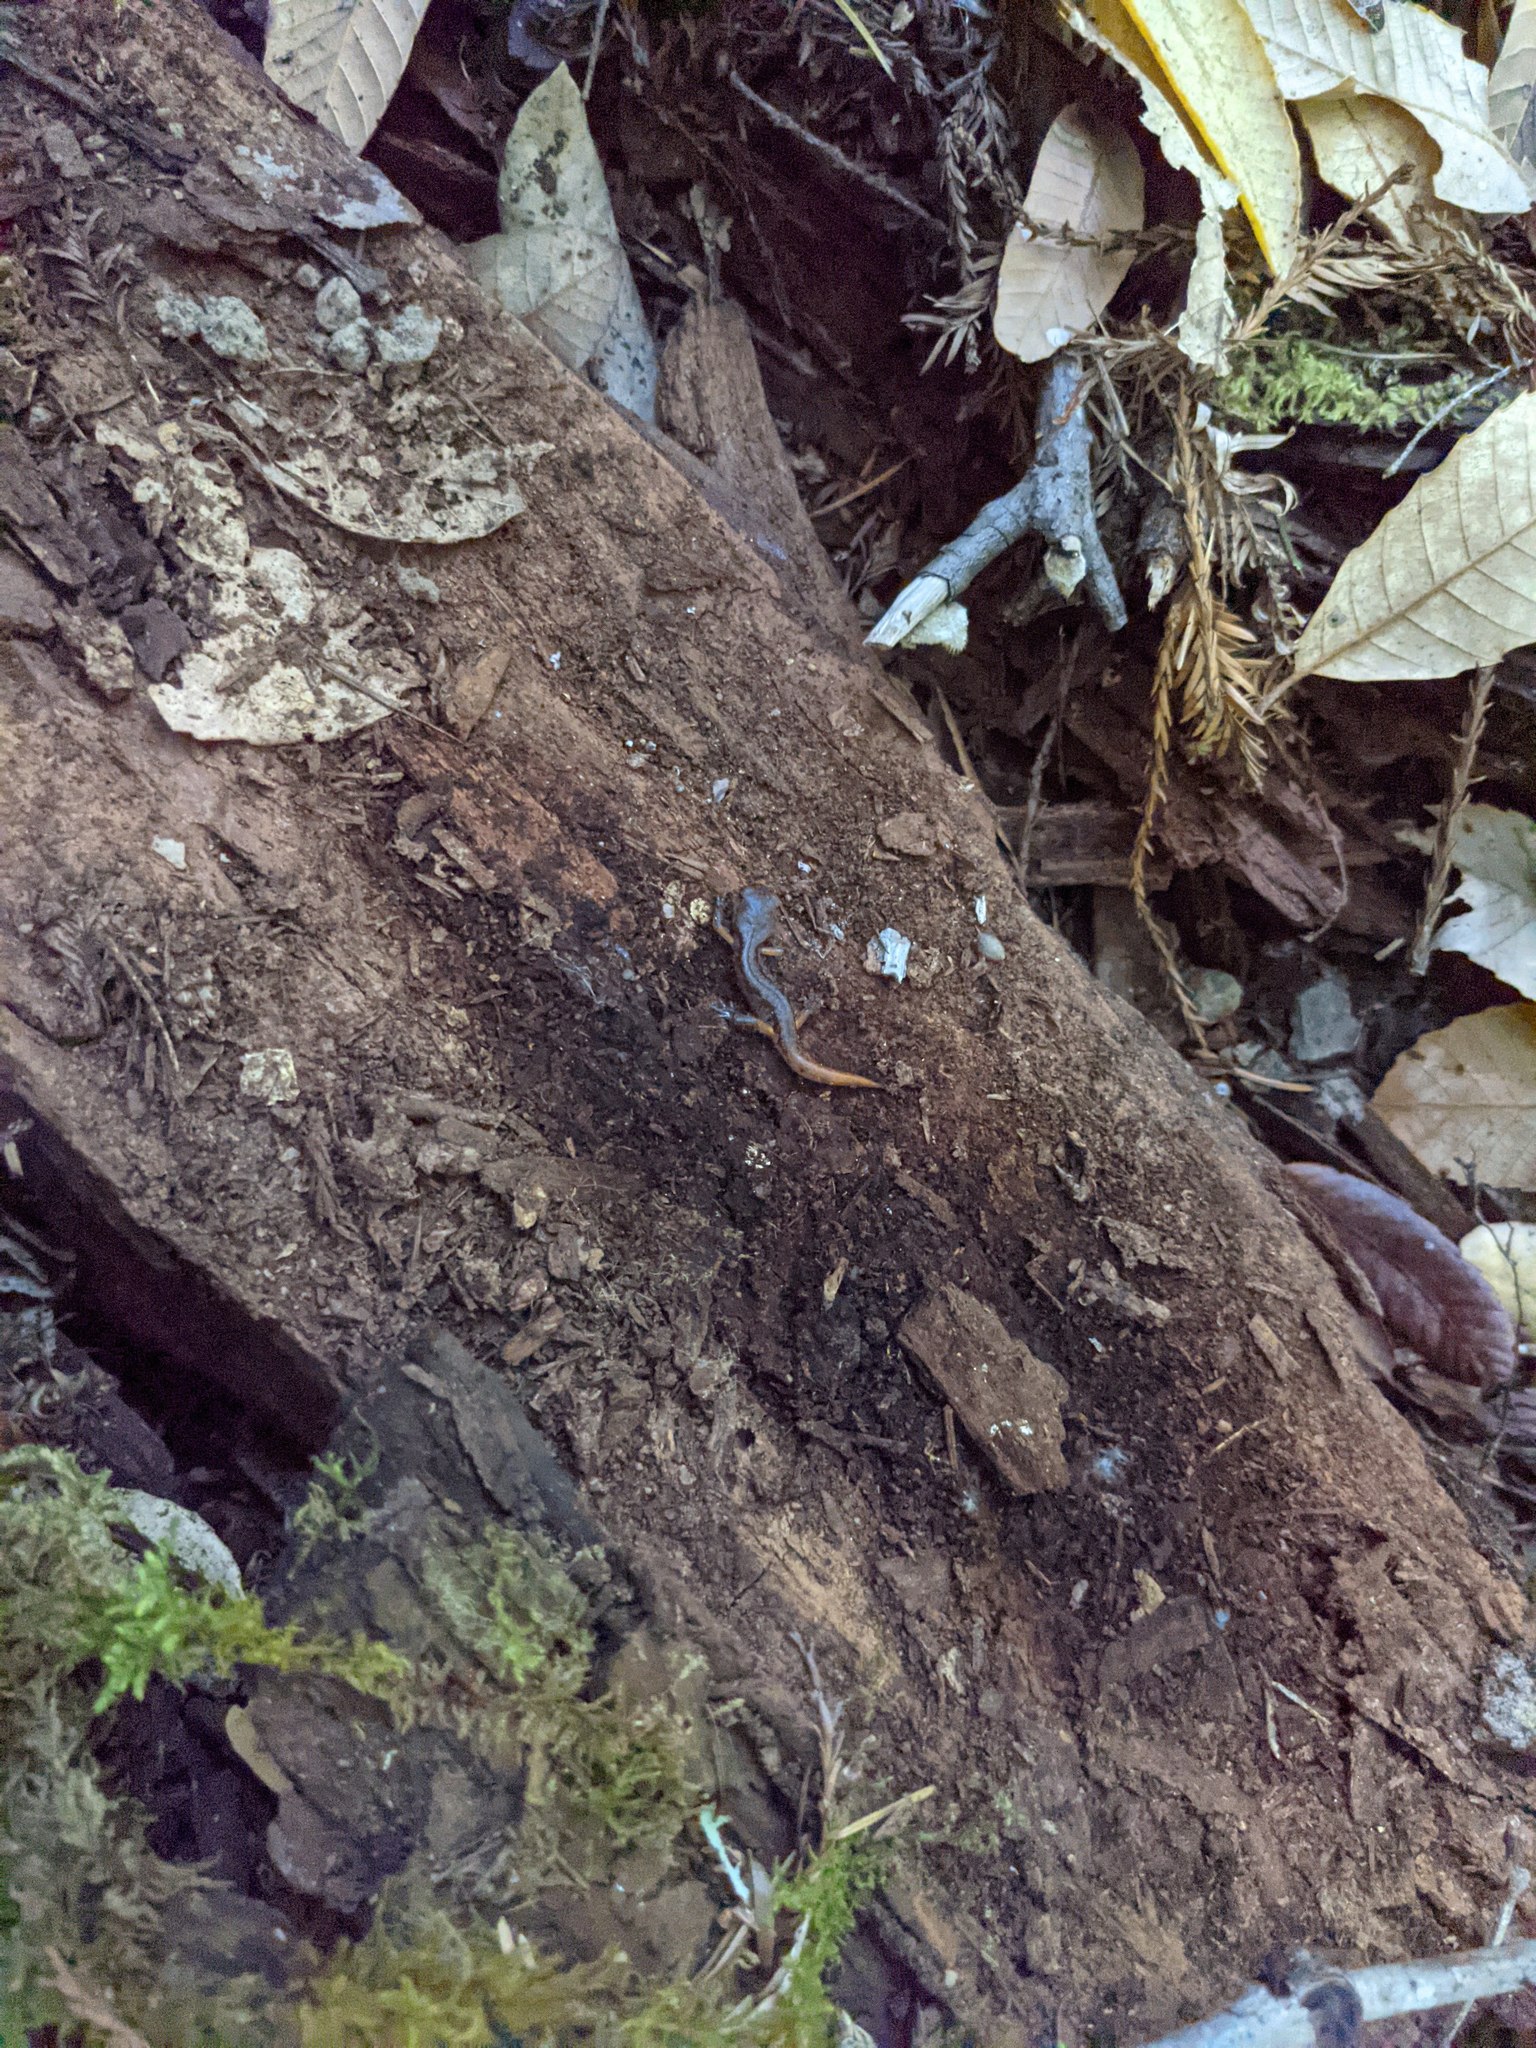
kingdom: Animalia
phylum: Chordata
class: Amphibia
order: Caudata
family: Plethodontidae
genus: Ensatina
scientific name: Ensatina eschscholtzii
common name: Ensatina
